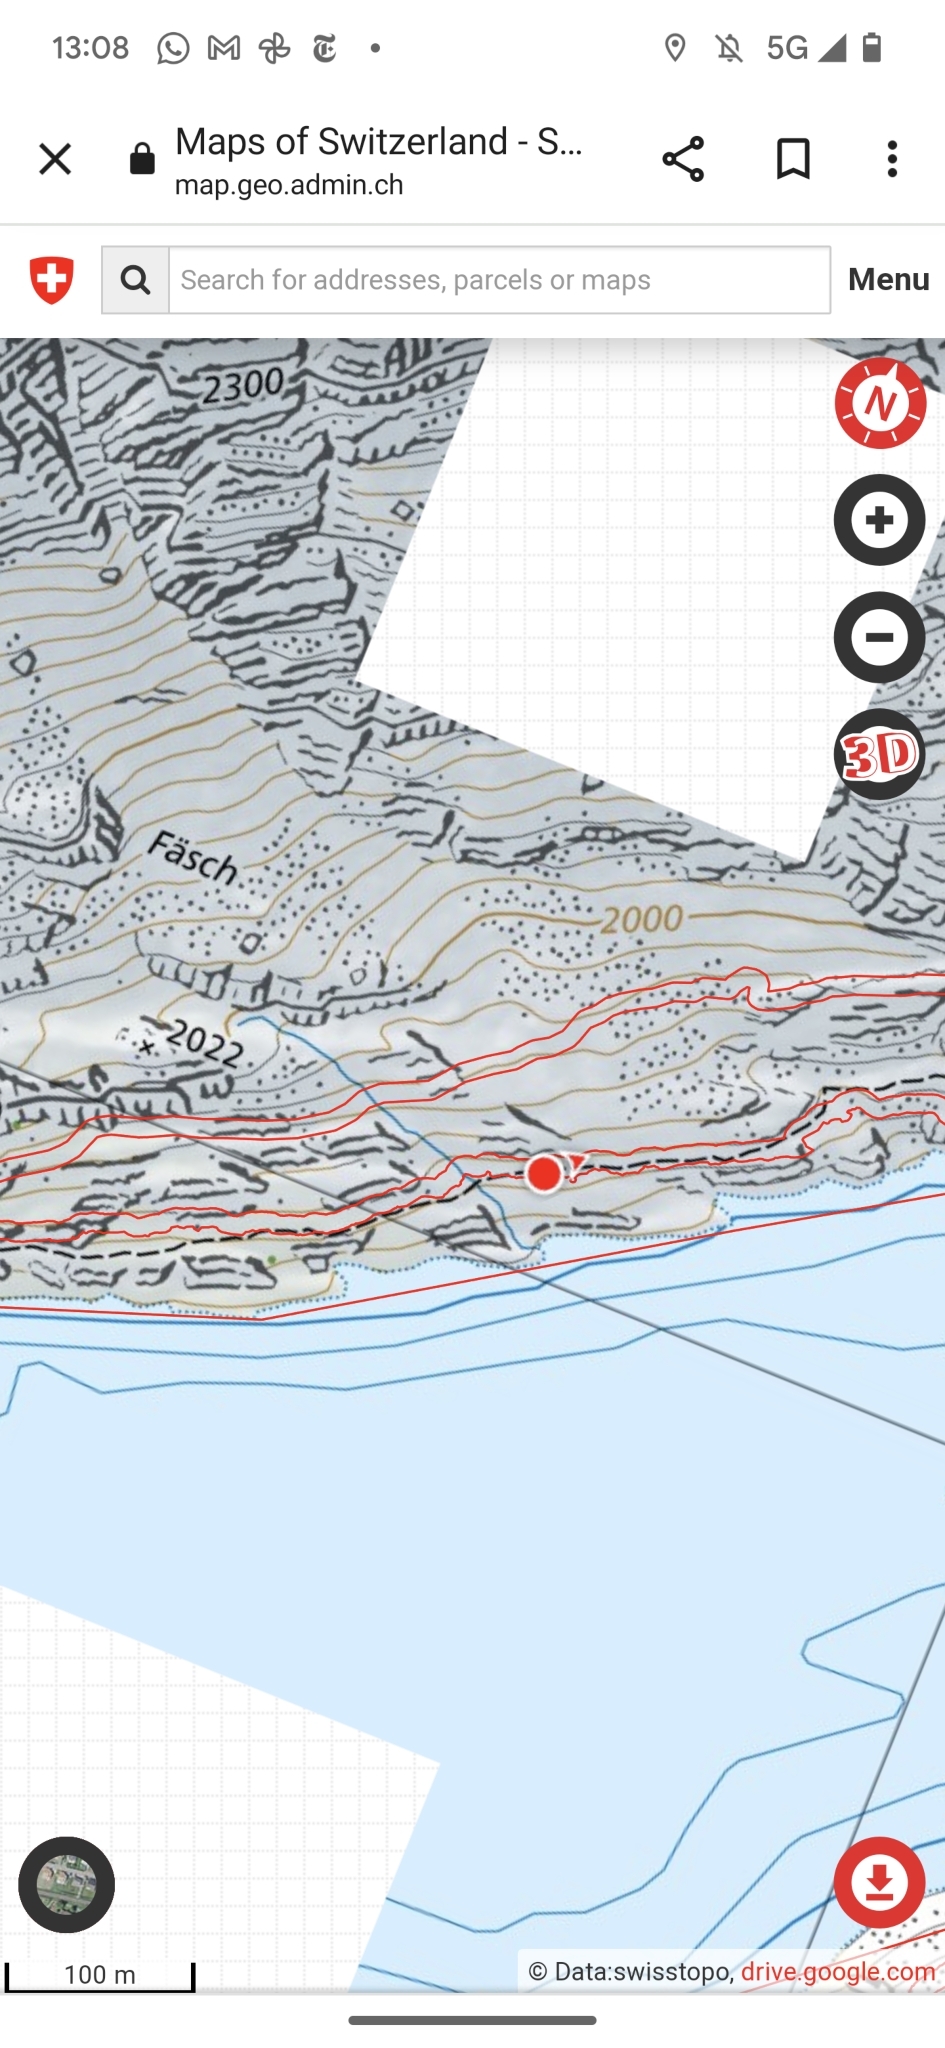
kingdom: Animalia
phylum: Arthropoda
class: Insecta
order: Hymenoptera
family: Formicidae
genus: Formica
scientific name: Formica
